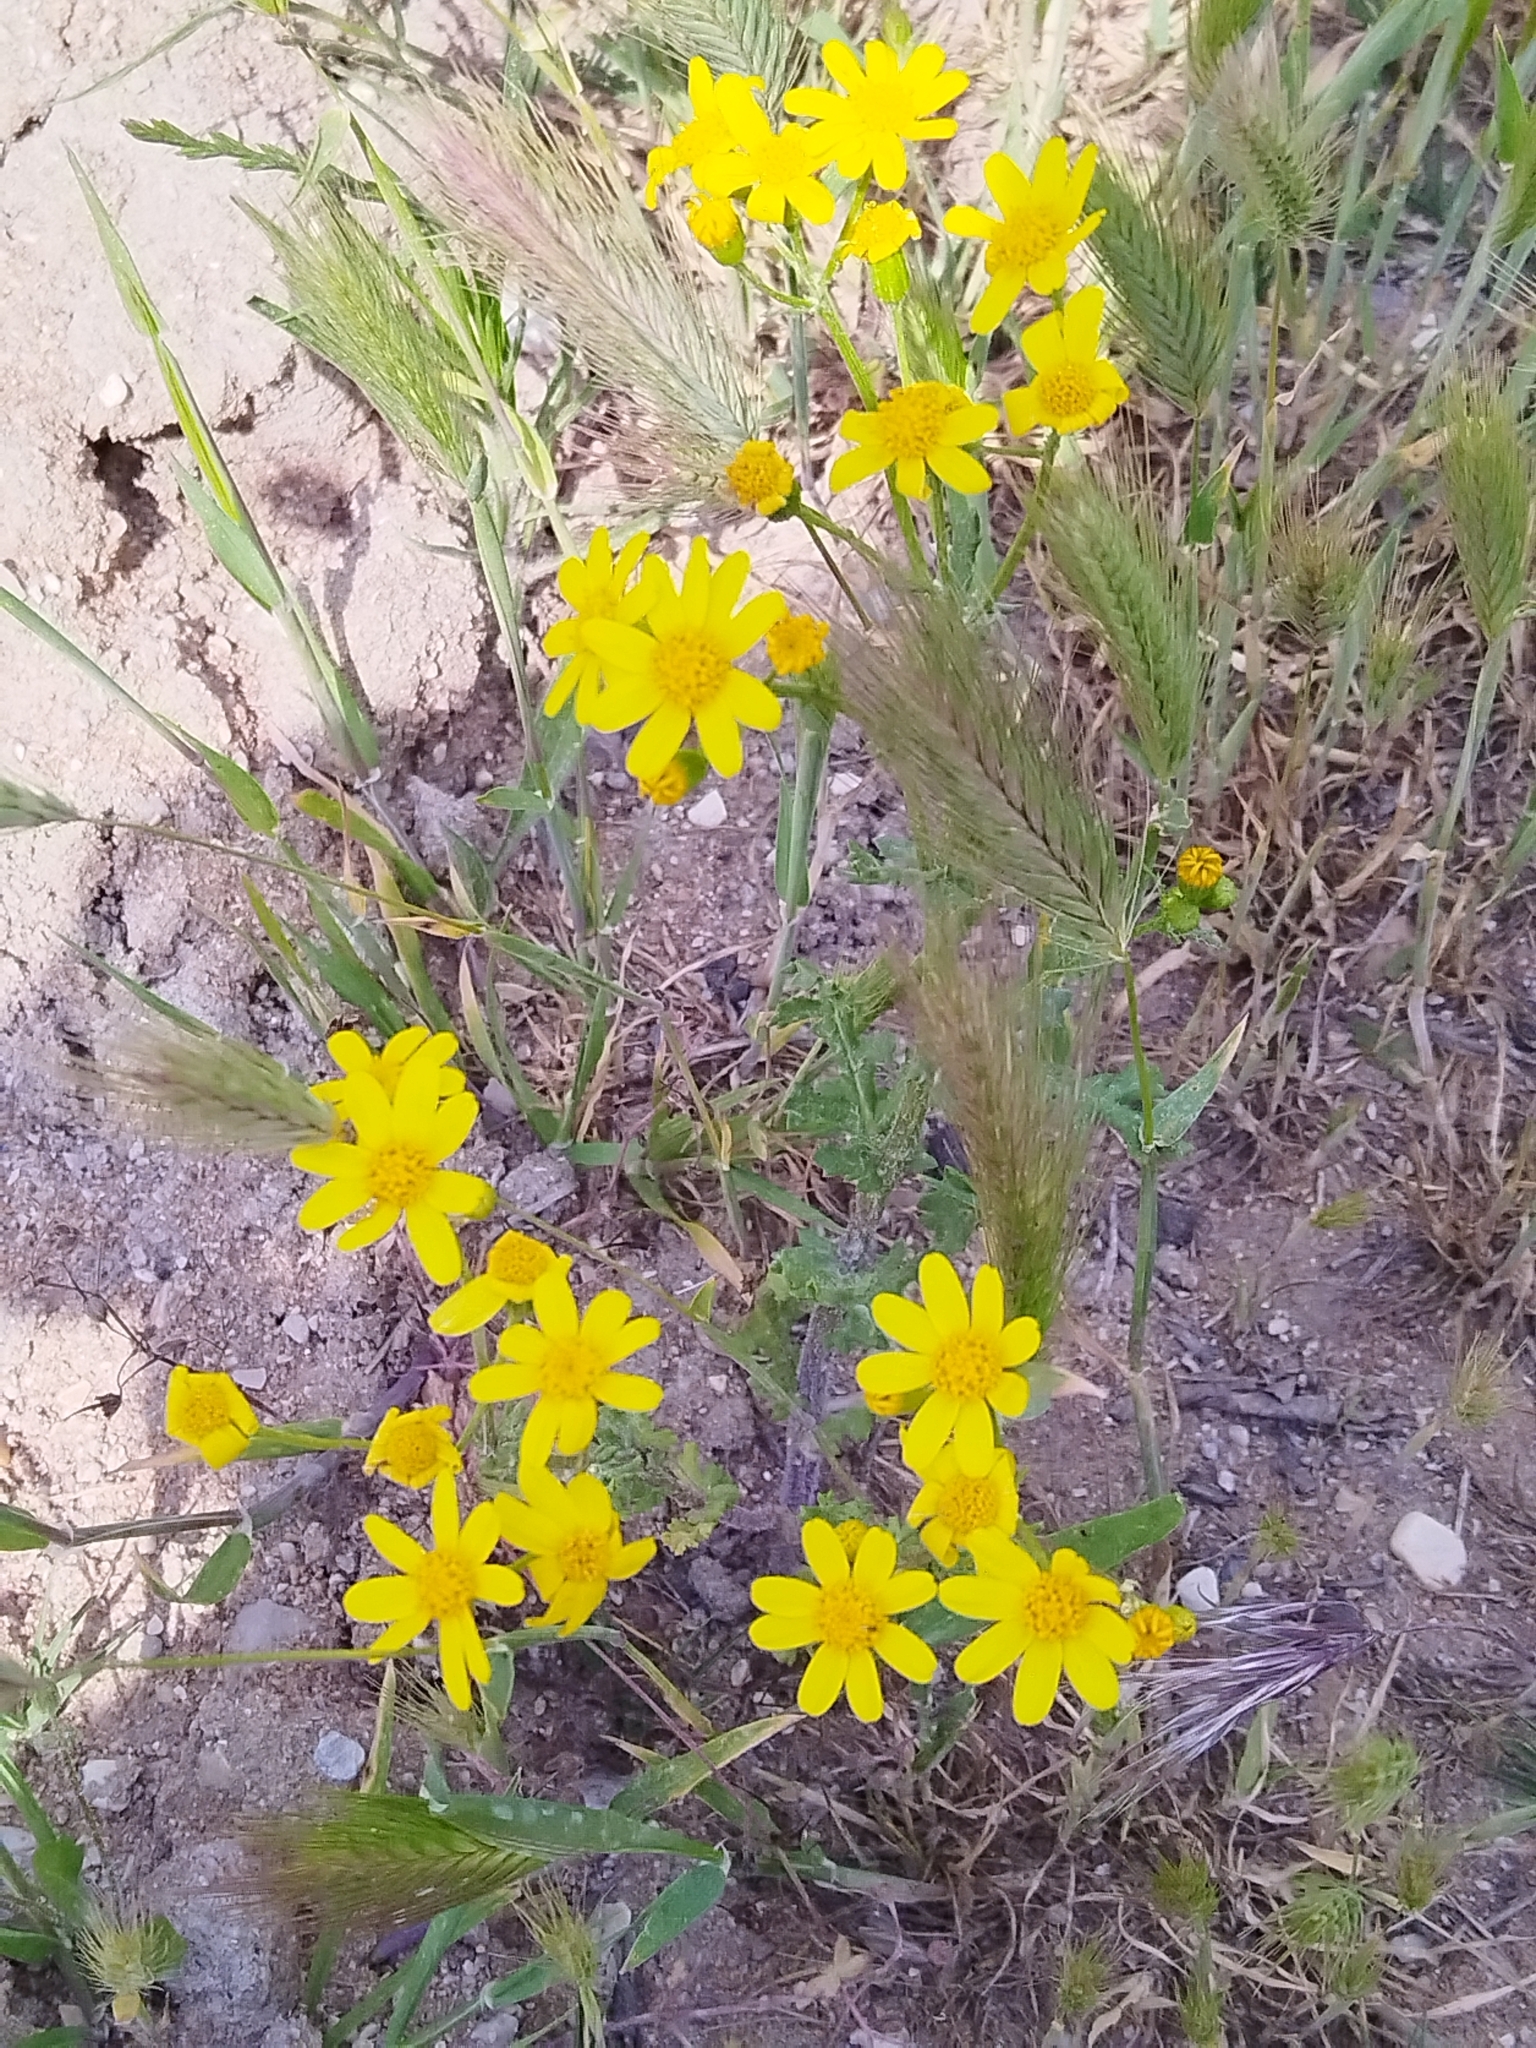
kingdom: Plantae
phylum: Tracheophyta
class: Magnoliopsida
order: Asterales
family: Asteraceae
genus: Senecio
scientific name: Senecio vernalis
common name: Eastern groundsel
